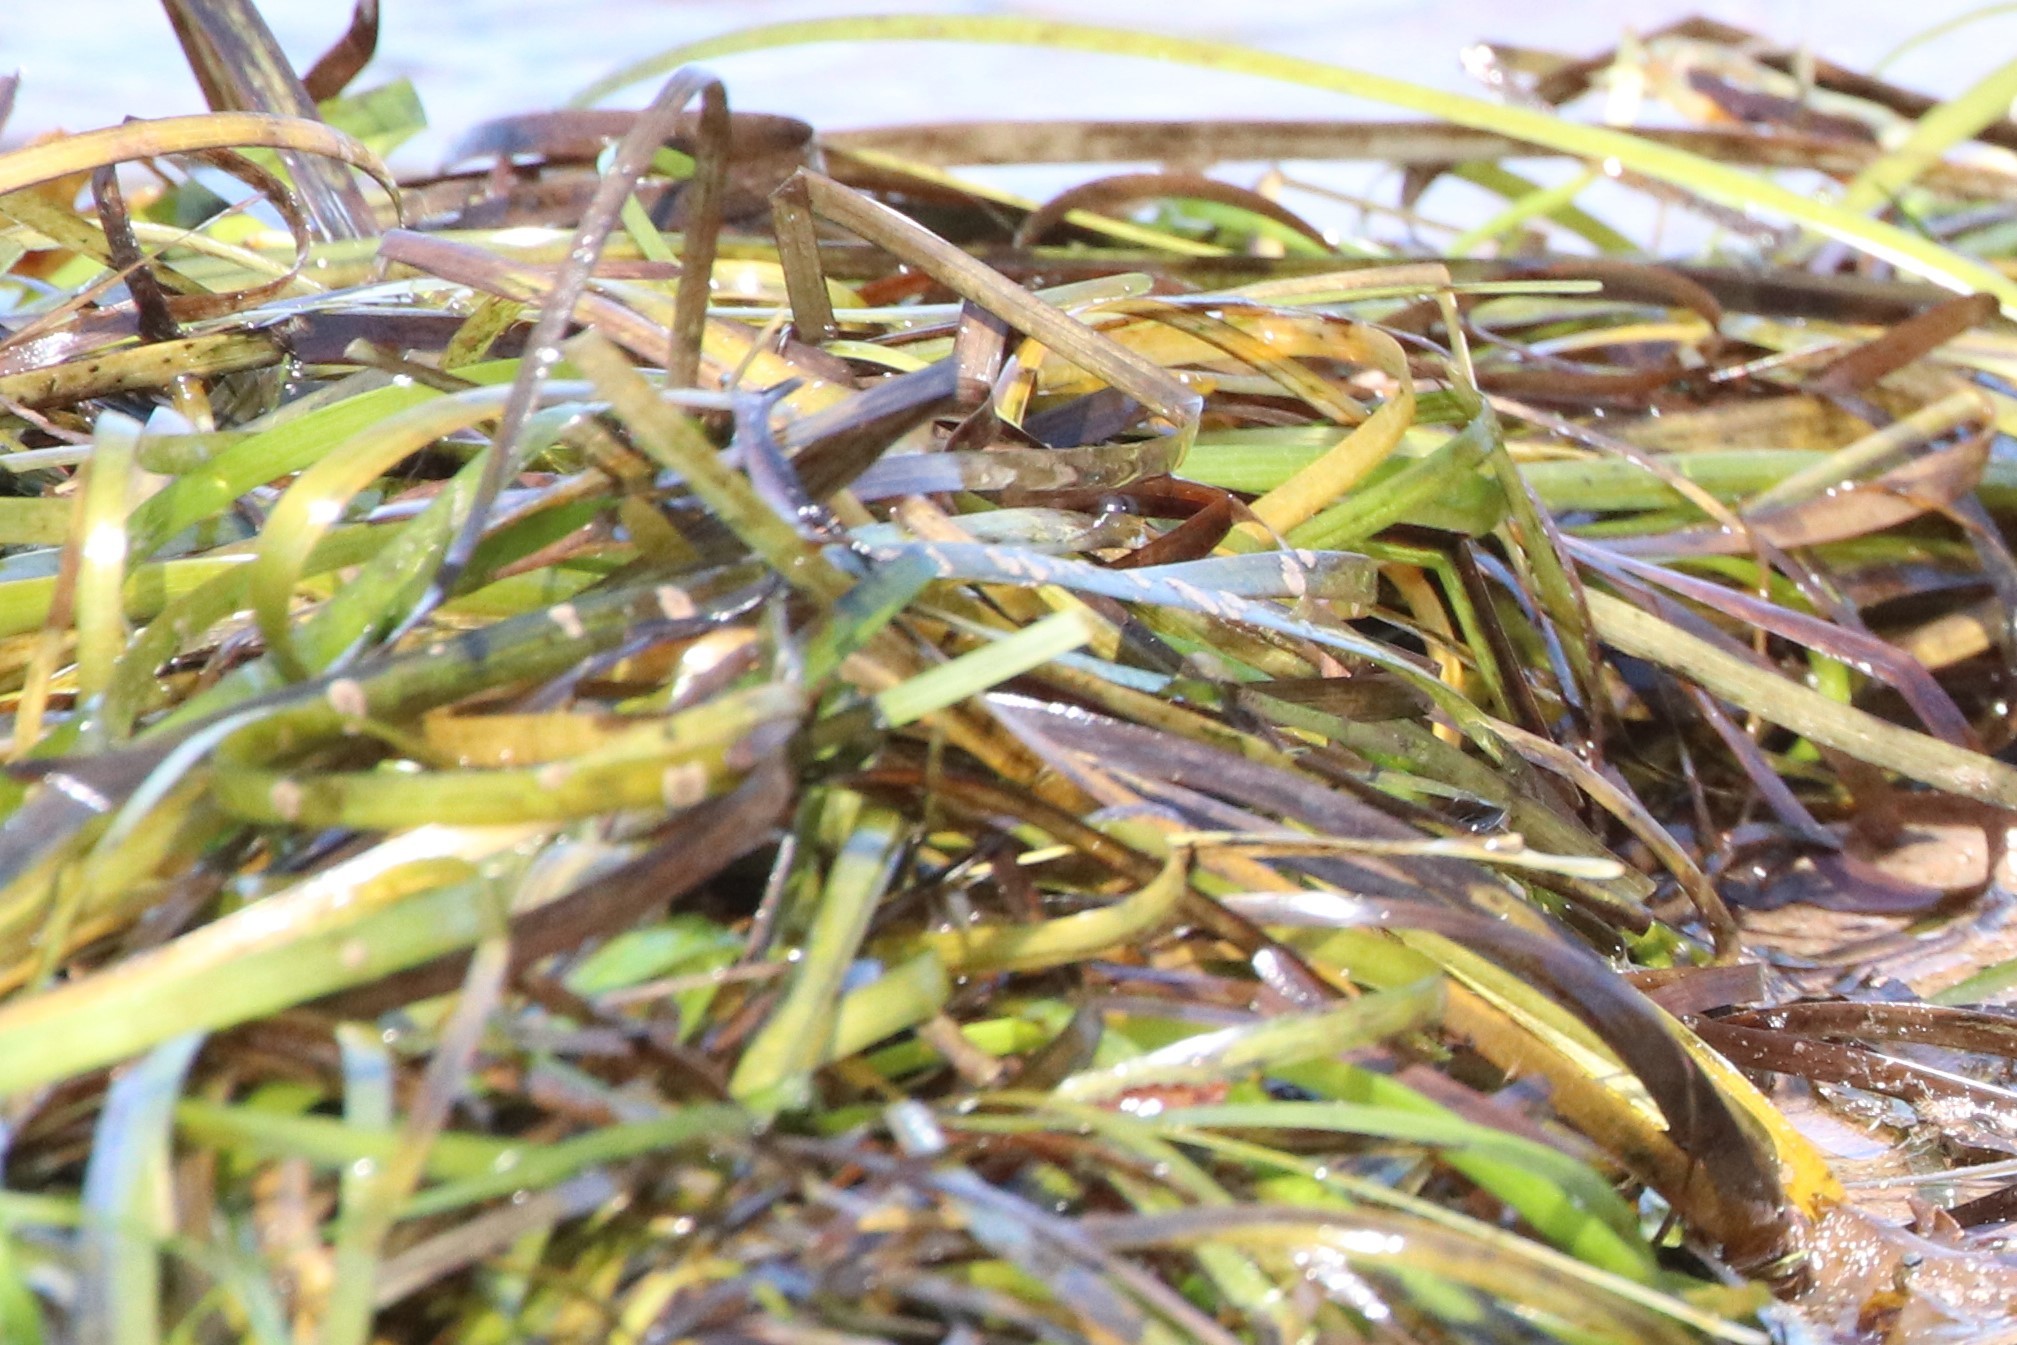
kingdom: Plantae
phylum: Tracheophyta
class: Liliopsida
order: Alismatales
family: Zosteraceae
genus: Zostera
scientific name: Zostera marina
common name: Eelgrass
